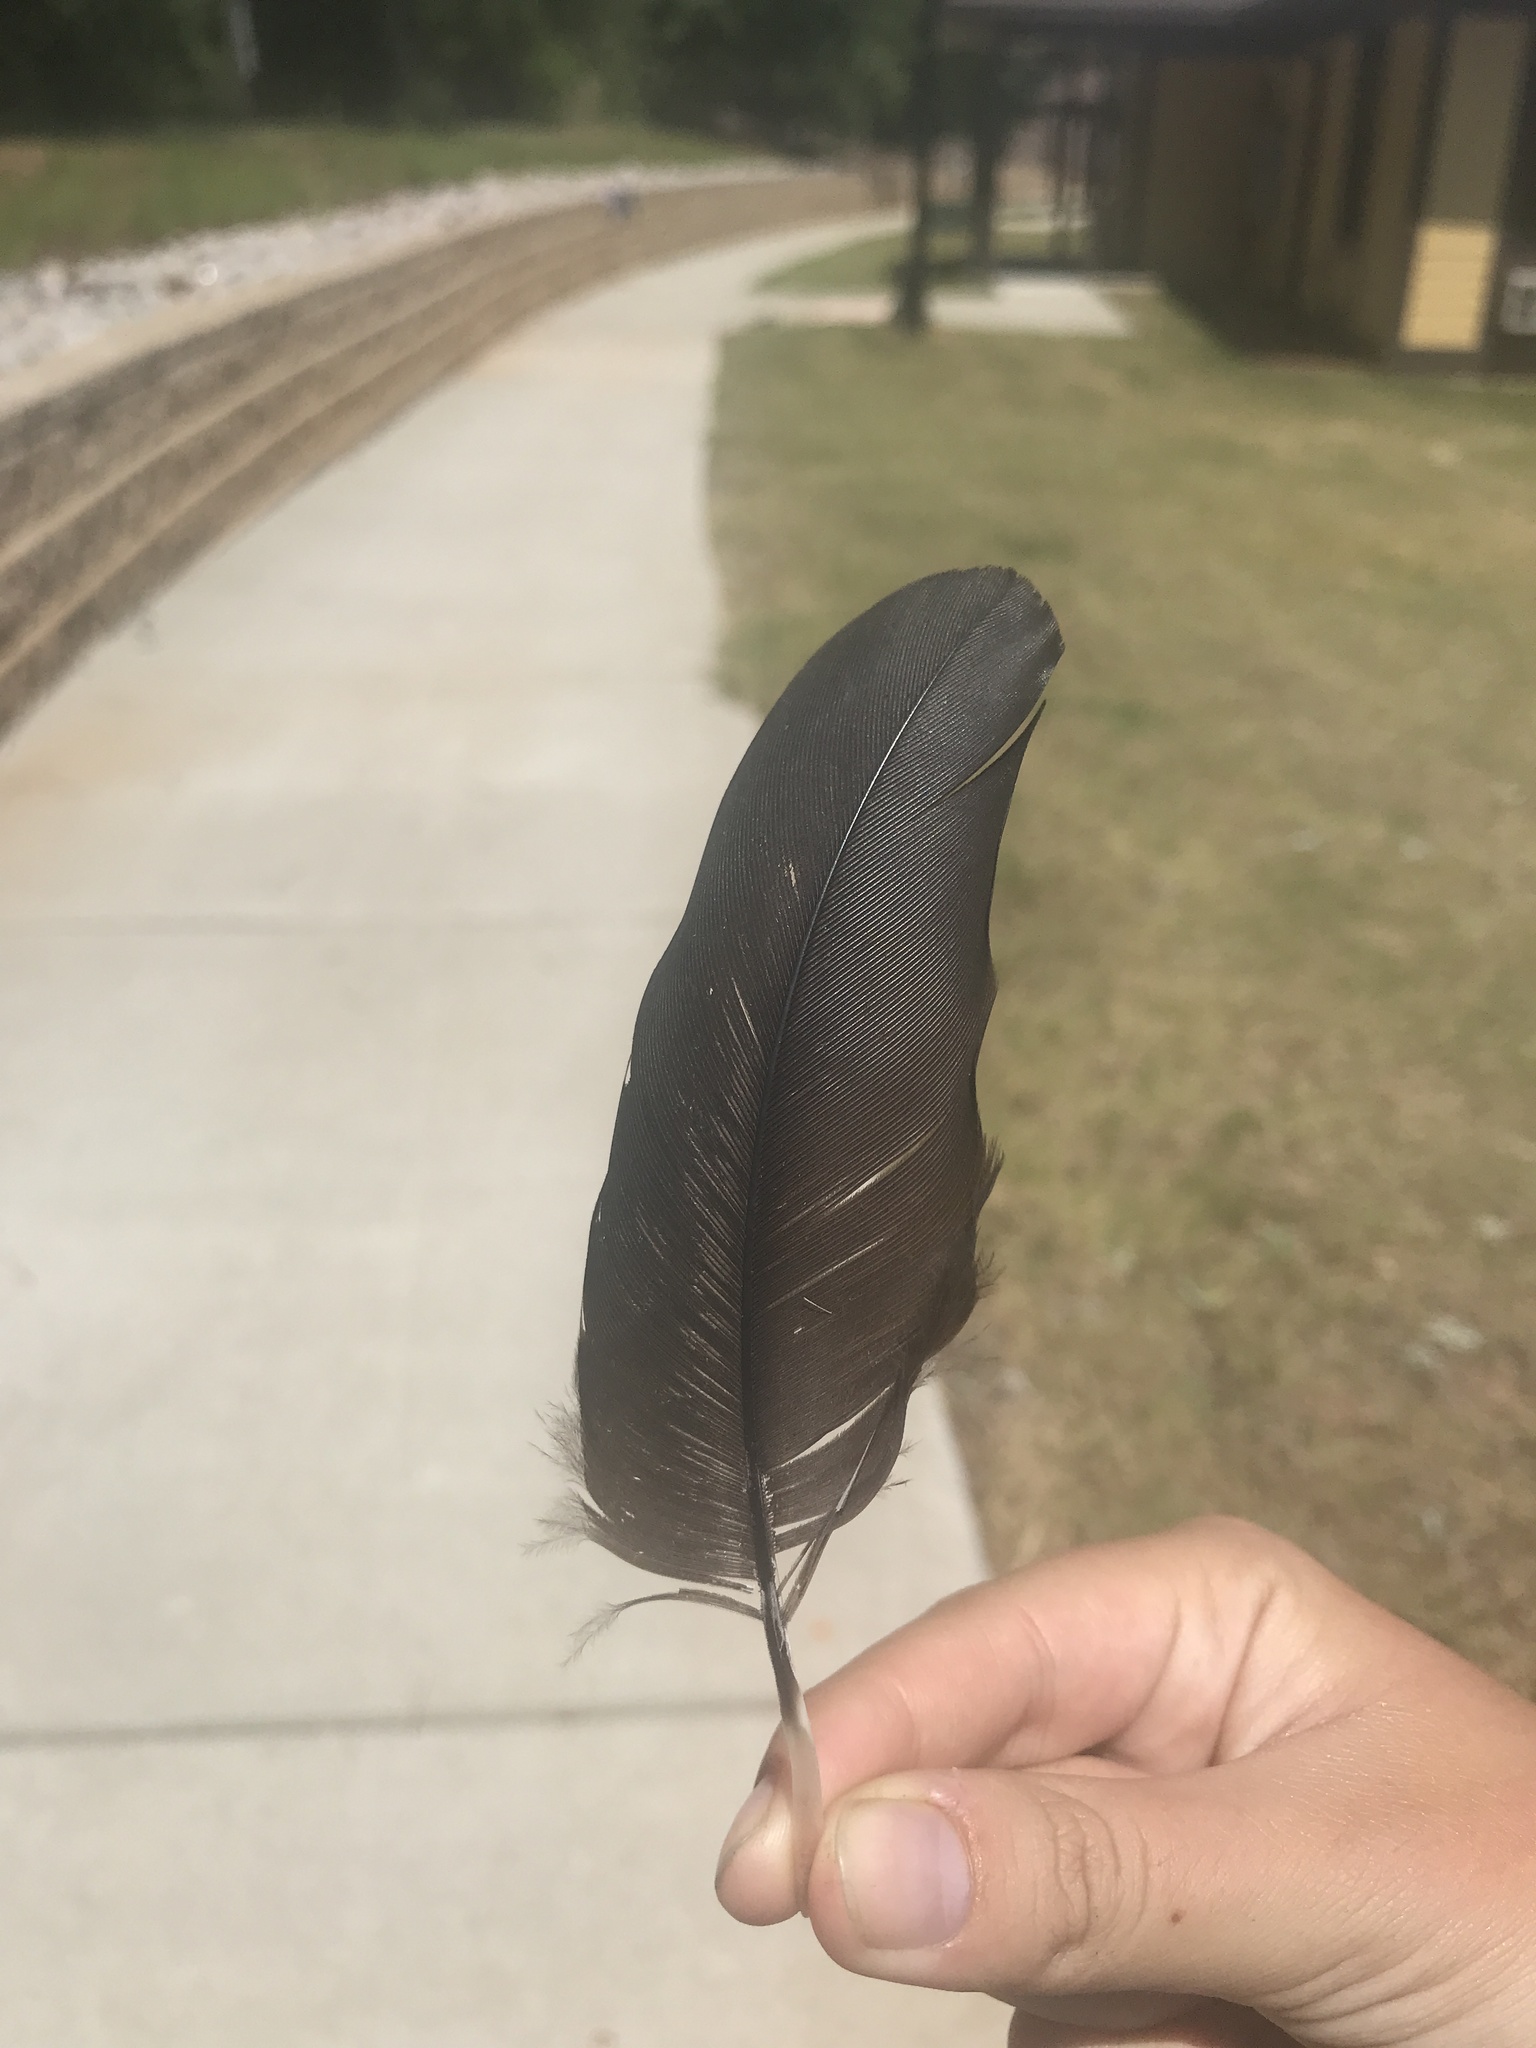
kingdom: Animalia
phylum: Chordata
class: Aves
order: Accipitriformes
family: Cathartidae
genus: Coragyps
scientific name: Coragyps atratus
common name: Black vulture
